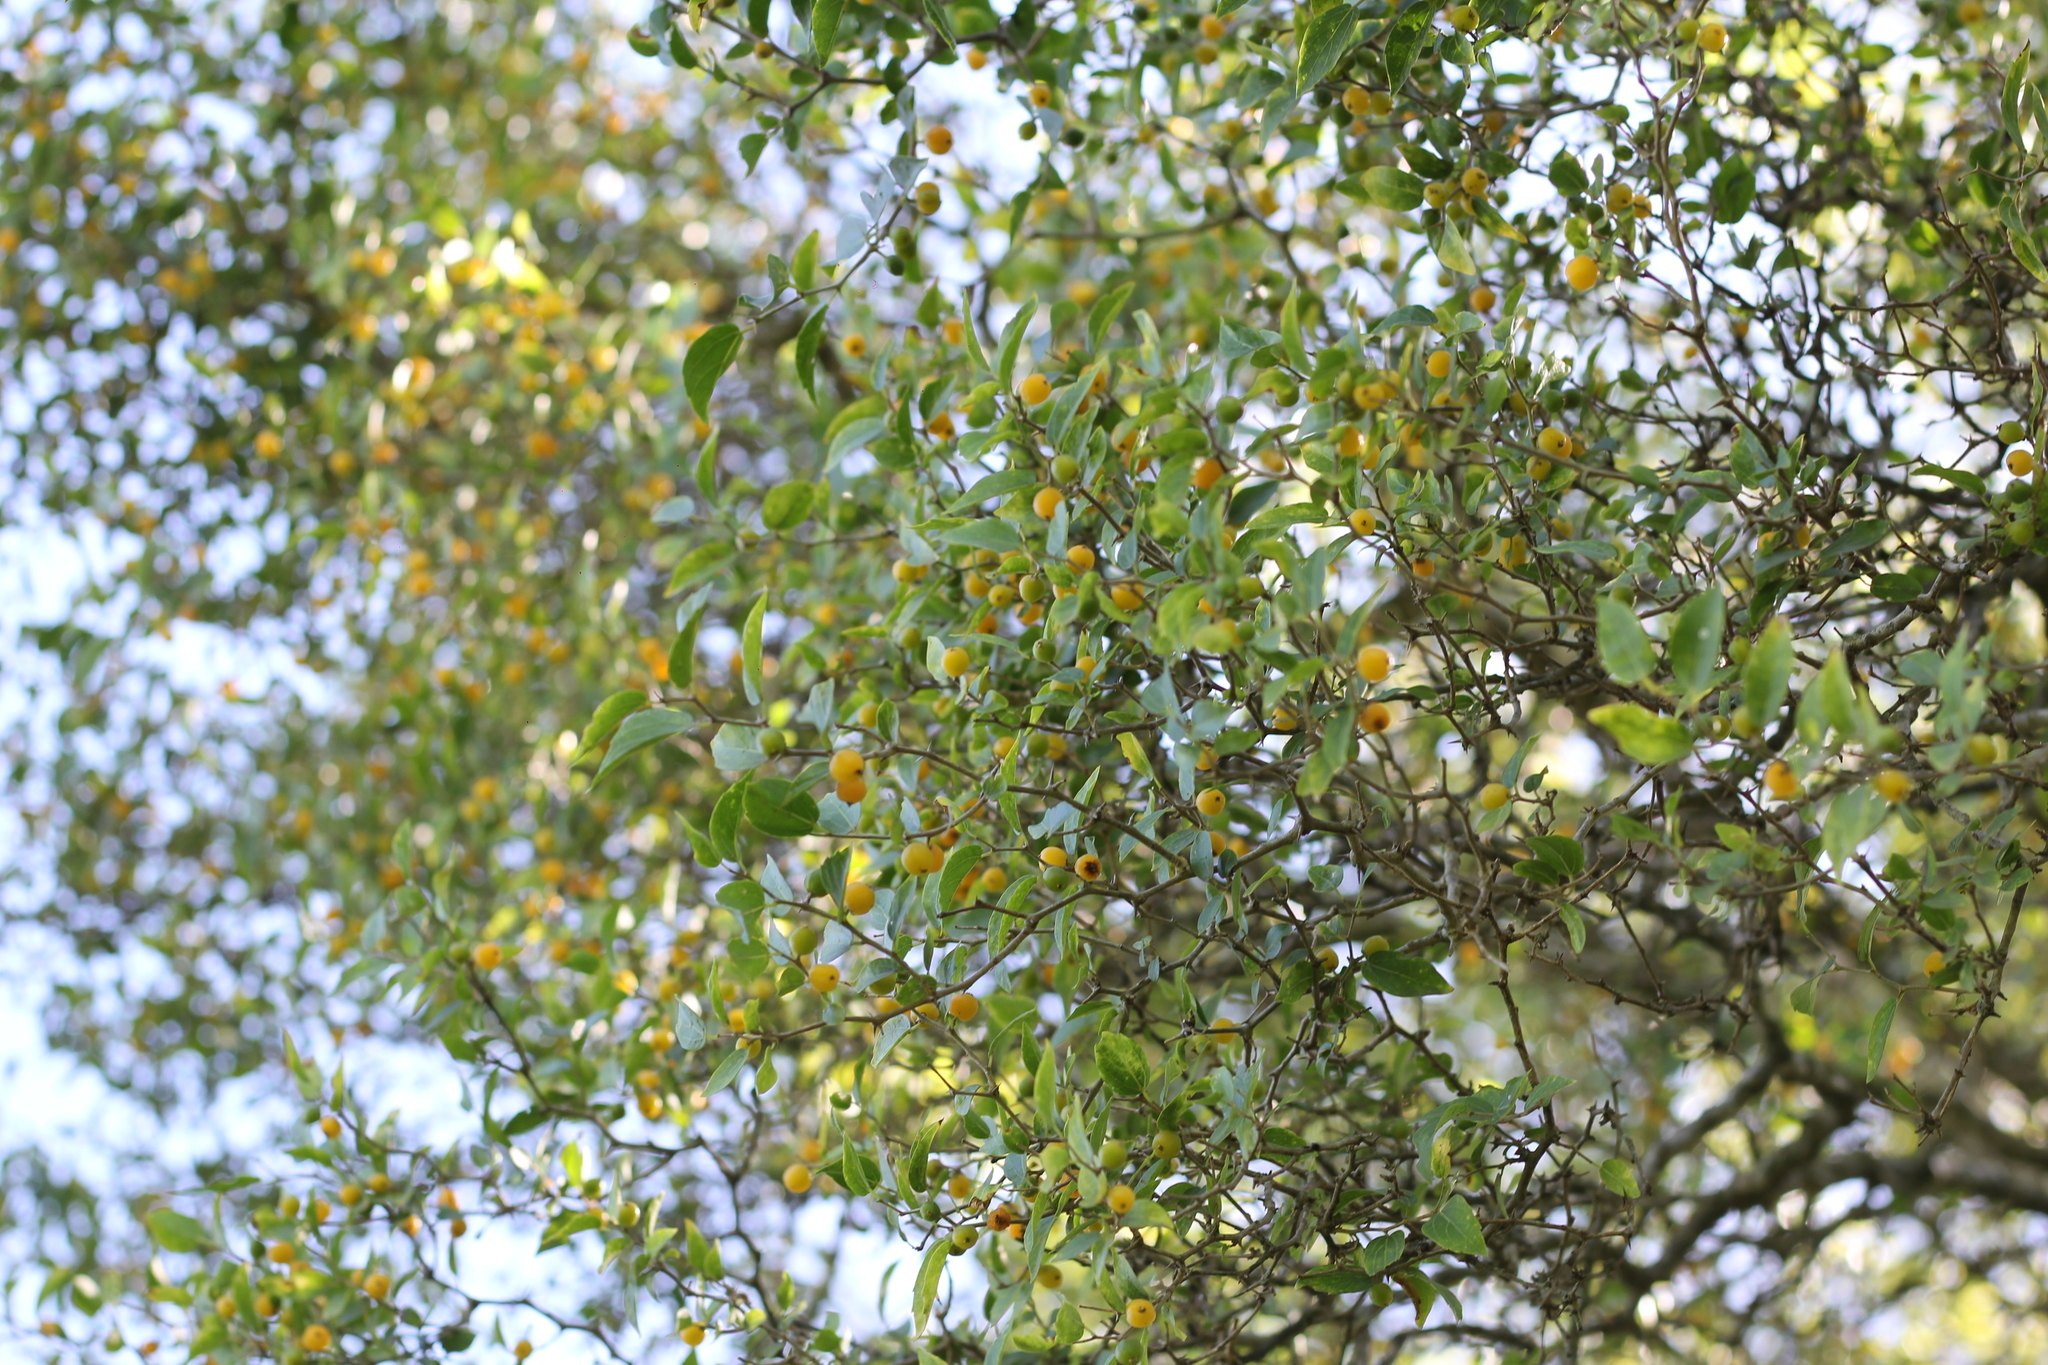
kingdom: Plantae
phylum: Tracheophyta
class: Magnoliopsida
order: Rosales
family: Cannabaceae
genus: Celtis
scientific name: Celtis tala
